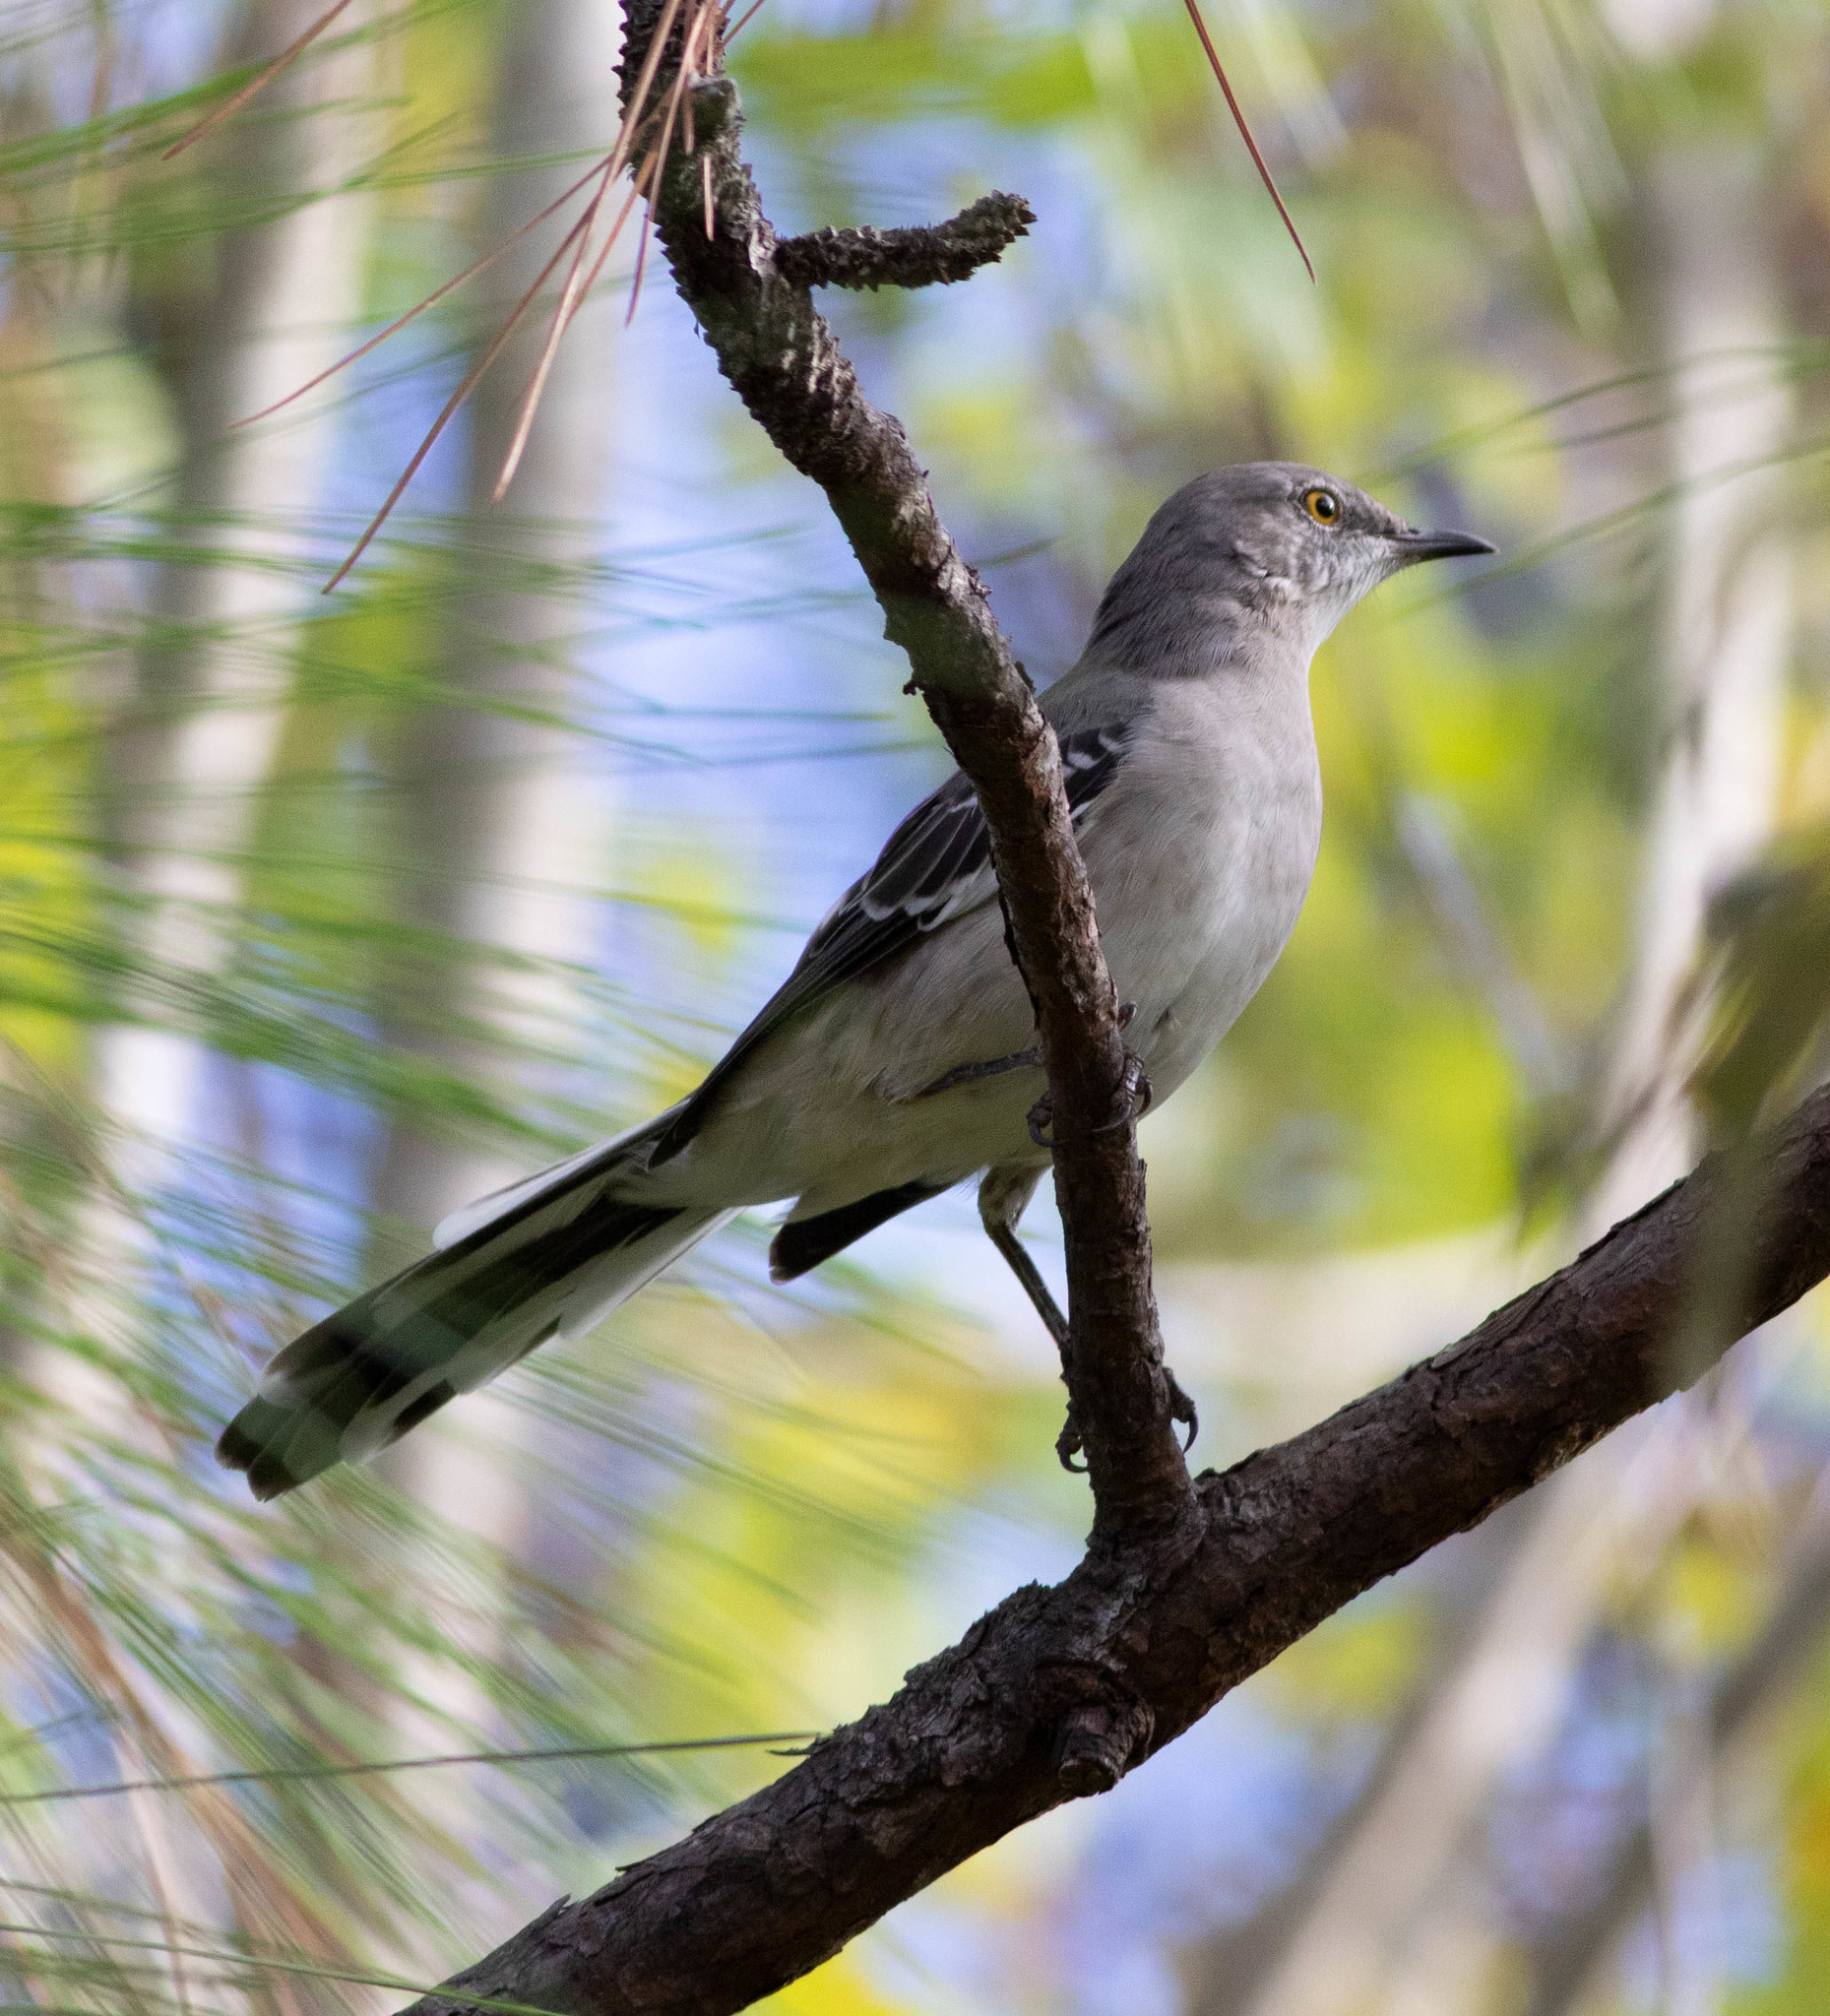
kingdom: Animalia
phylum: Chordata
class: Aves
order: Passeriformes
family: Mimidae
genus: Mimus
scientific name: Mimus polyglottos
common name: Northern mockingbird
